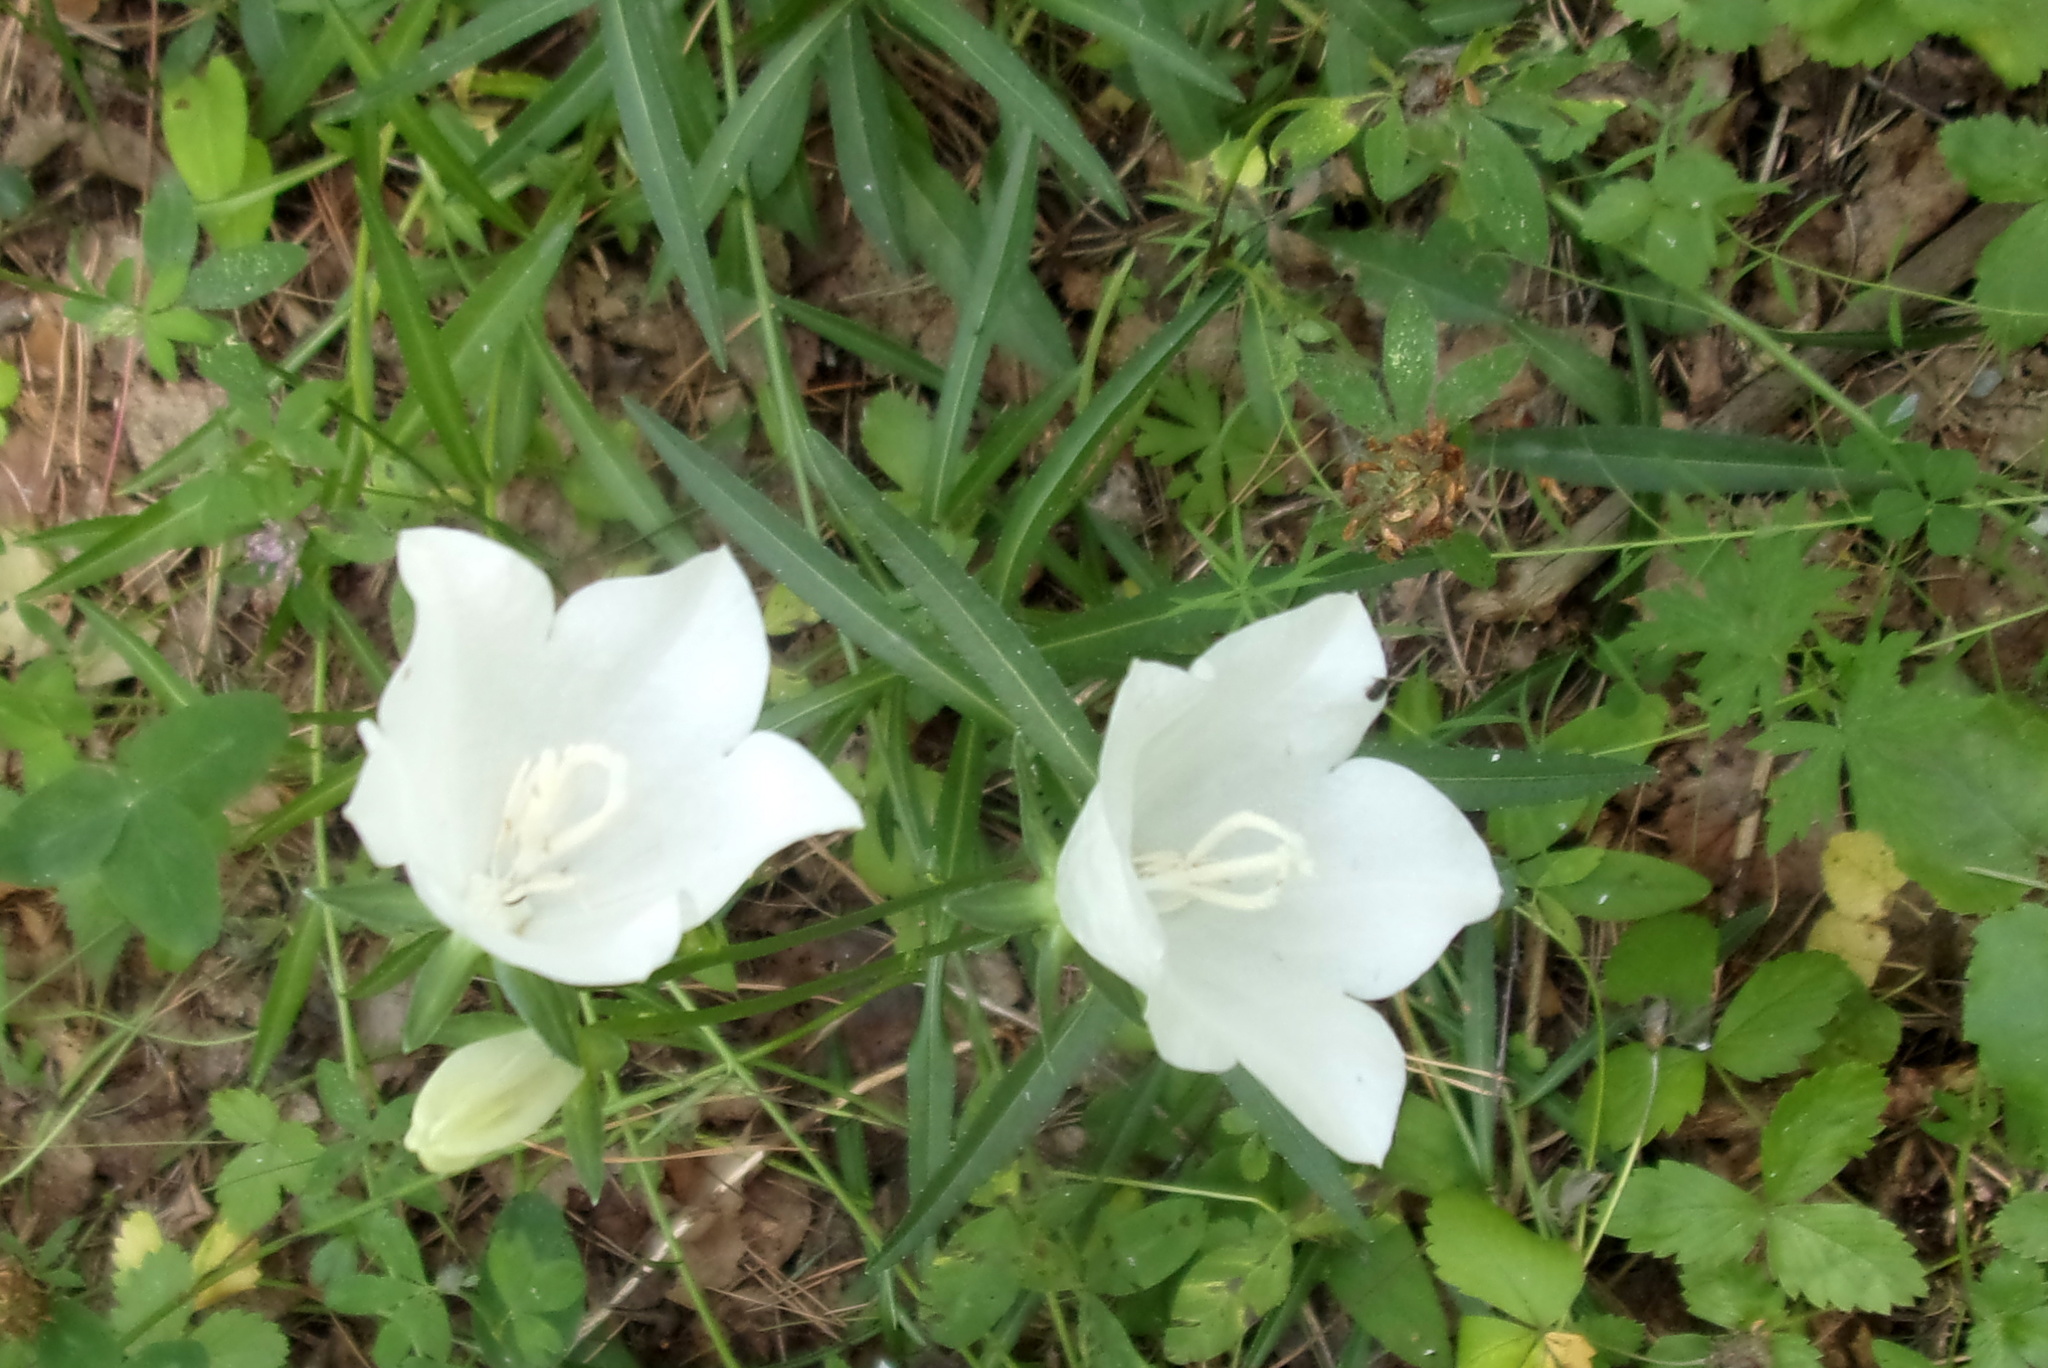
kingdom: Plantae
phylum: Tracheophyta
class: Magnoliopsida
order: Asterales
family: Campanulaceae
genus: Campanula
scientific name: Campanula persicifolia
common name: Peach-leaved bellflower
